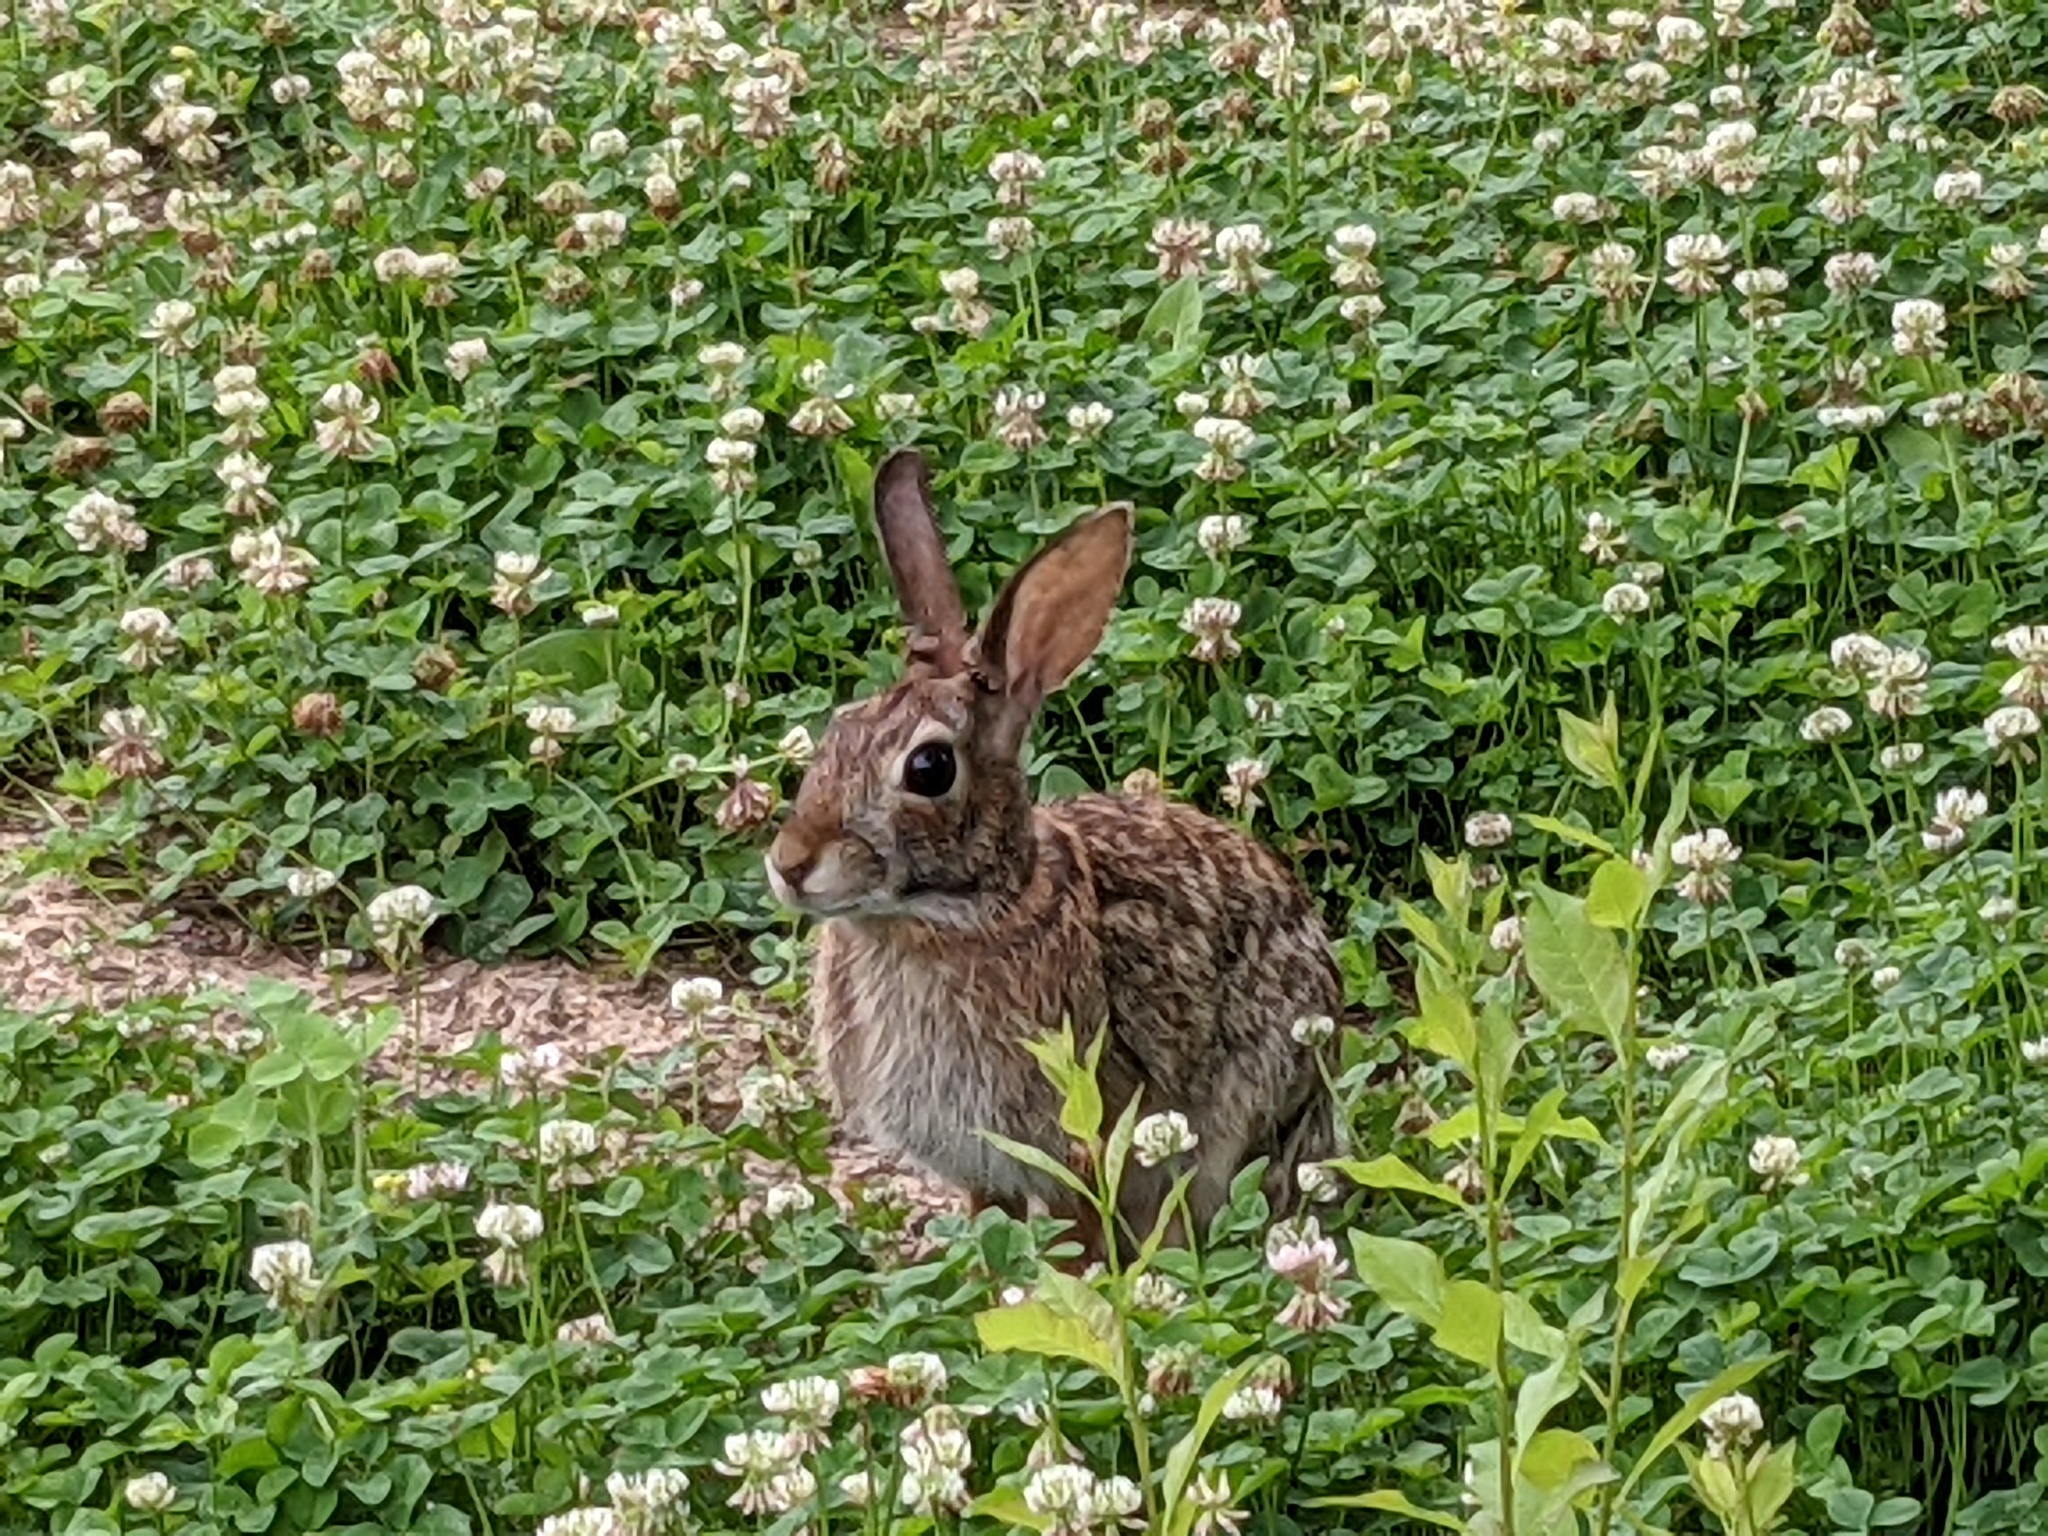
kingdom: Animalia
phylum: Chordata
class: Mammalia
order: Lagomorpha
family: Leporidae
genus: Sylvilagus
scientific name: Sylvilagus floridanus
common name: Eastern cottontail
